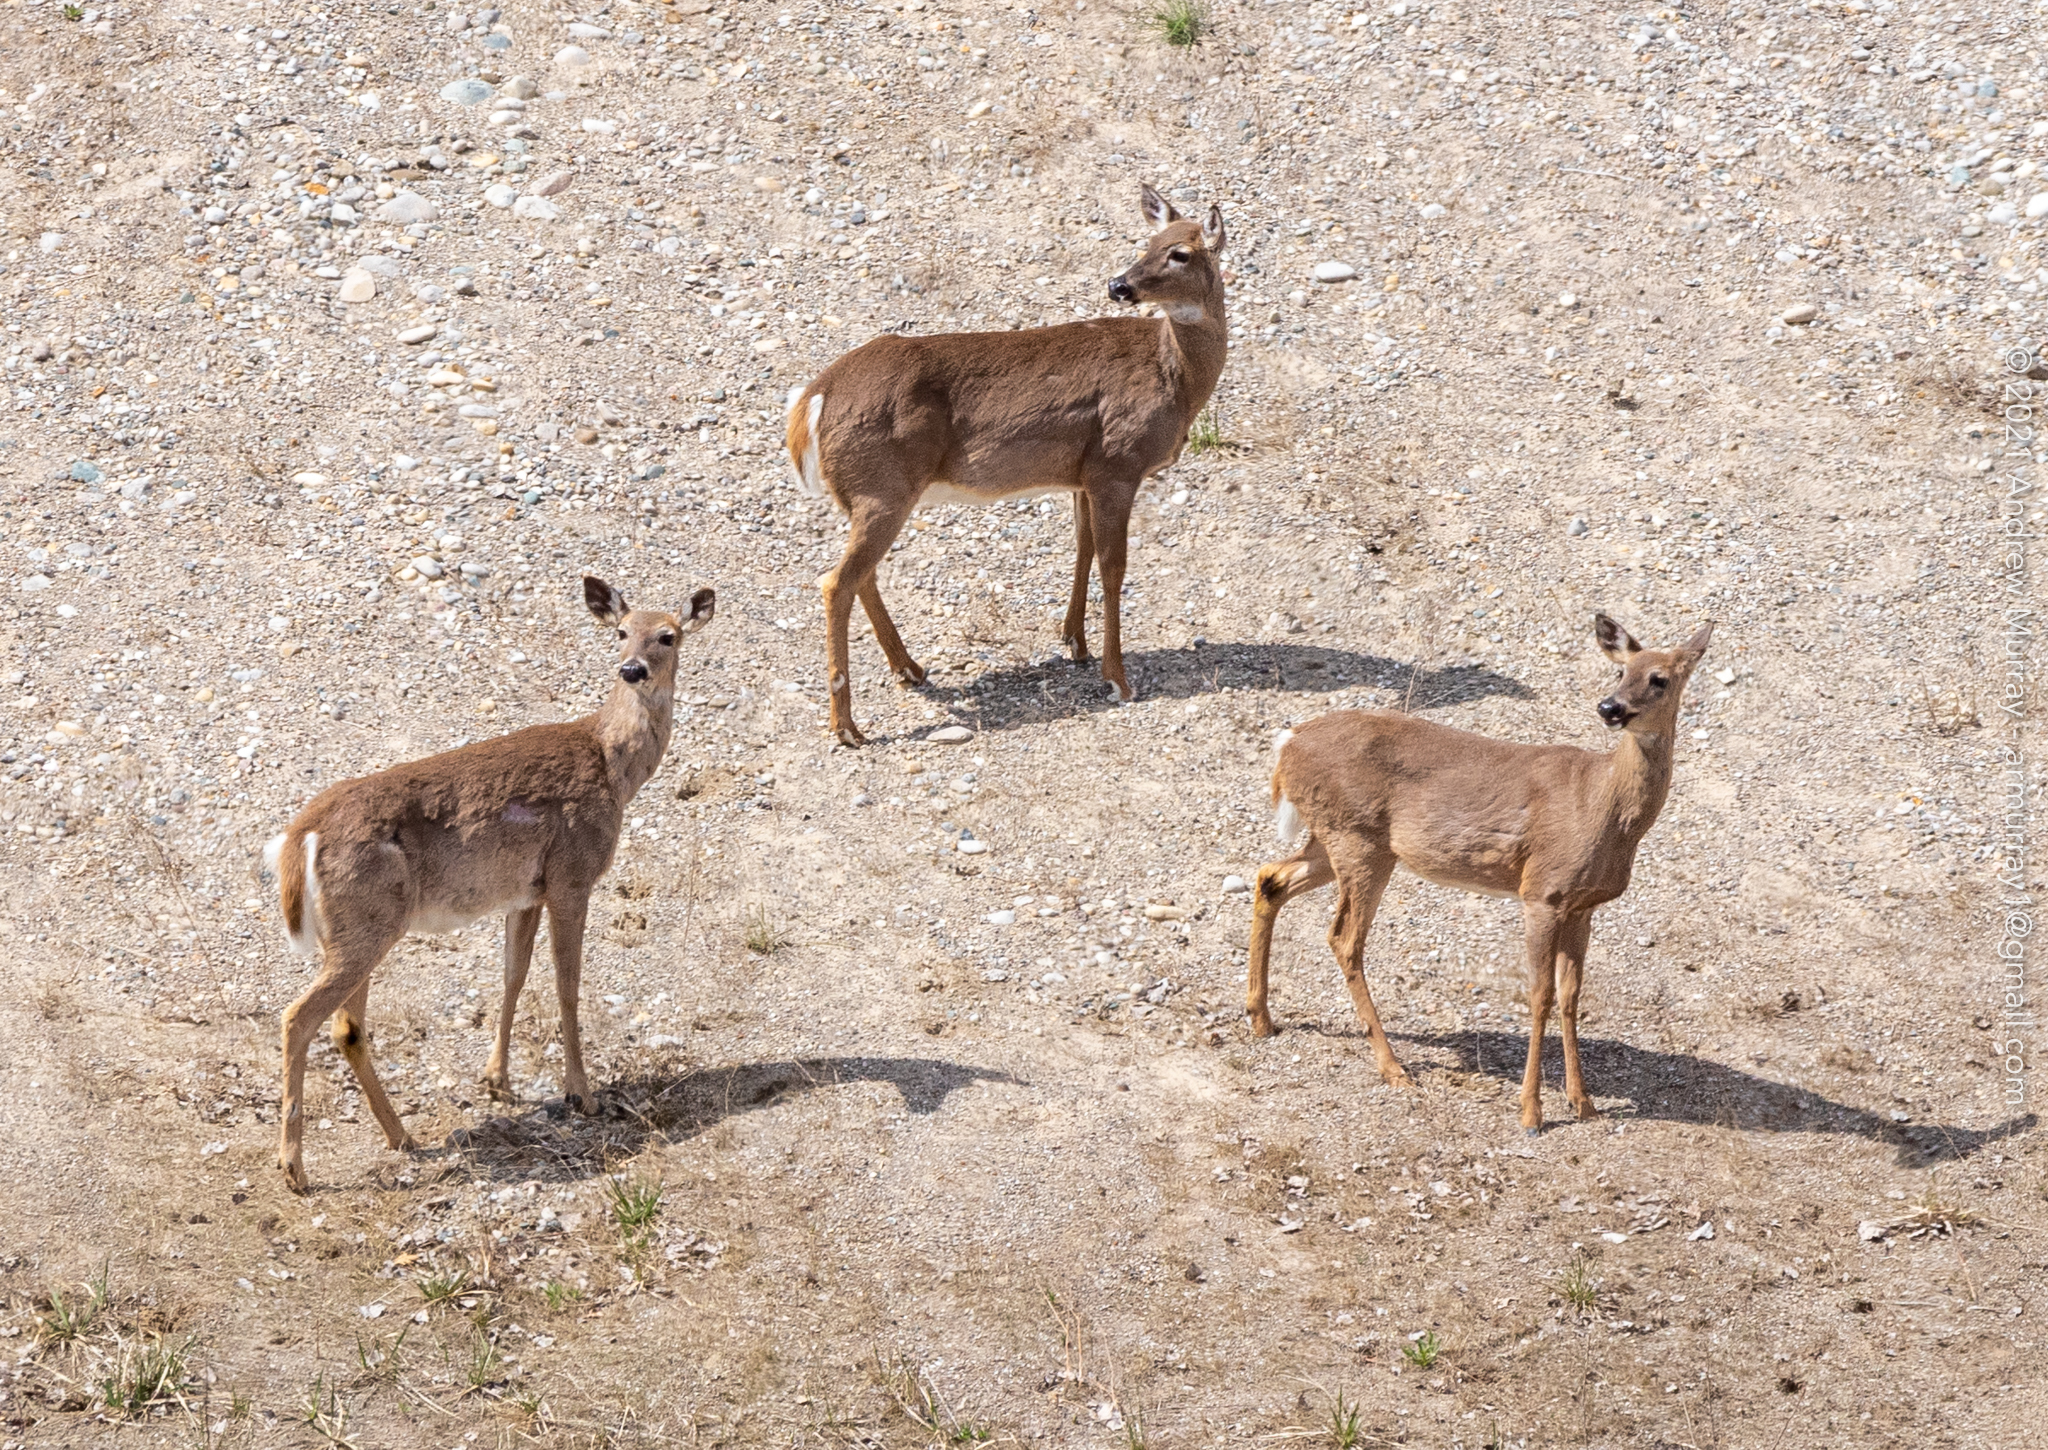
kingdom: Animalia
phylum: Chordata
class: Mammalia
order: Artiodactyla
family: Cervidae
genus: Odocoileus
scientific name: Odocoileus virginianus
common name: White-tailed deer
